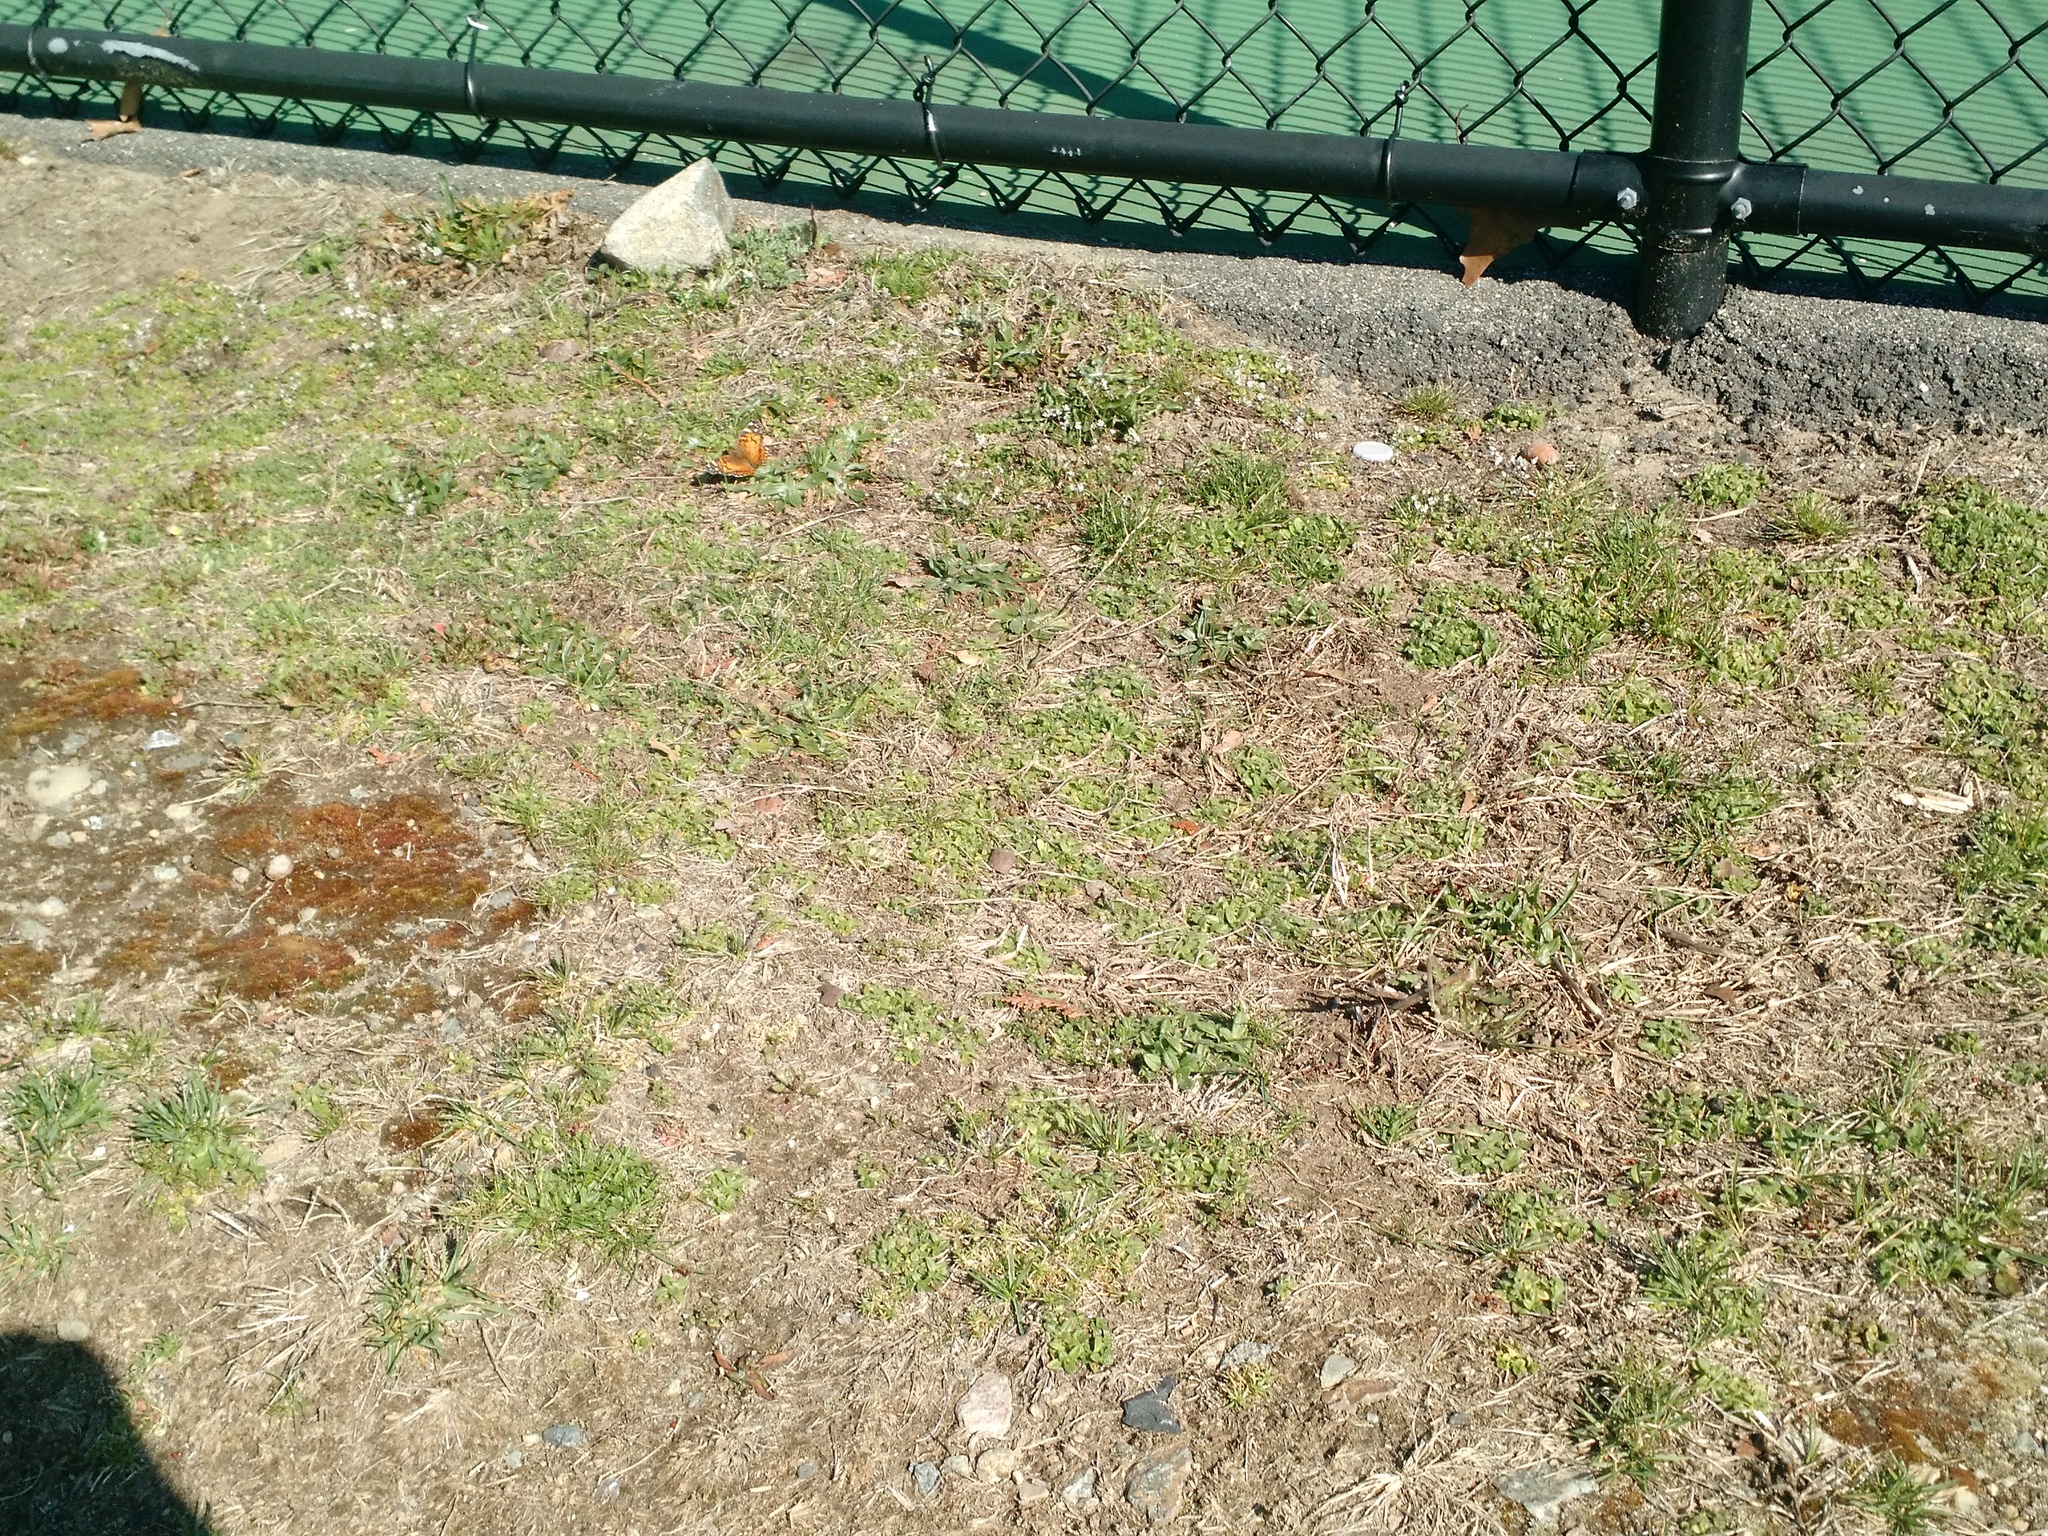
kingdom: Animalia
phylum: Arthropoda
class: Insecta
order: Lepidoptera
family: Nymphalidae
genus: Vanessa
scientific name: Vanessa virginiensis
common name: American lady
